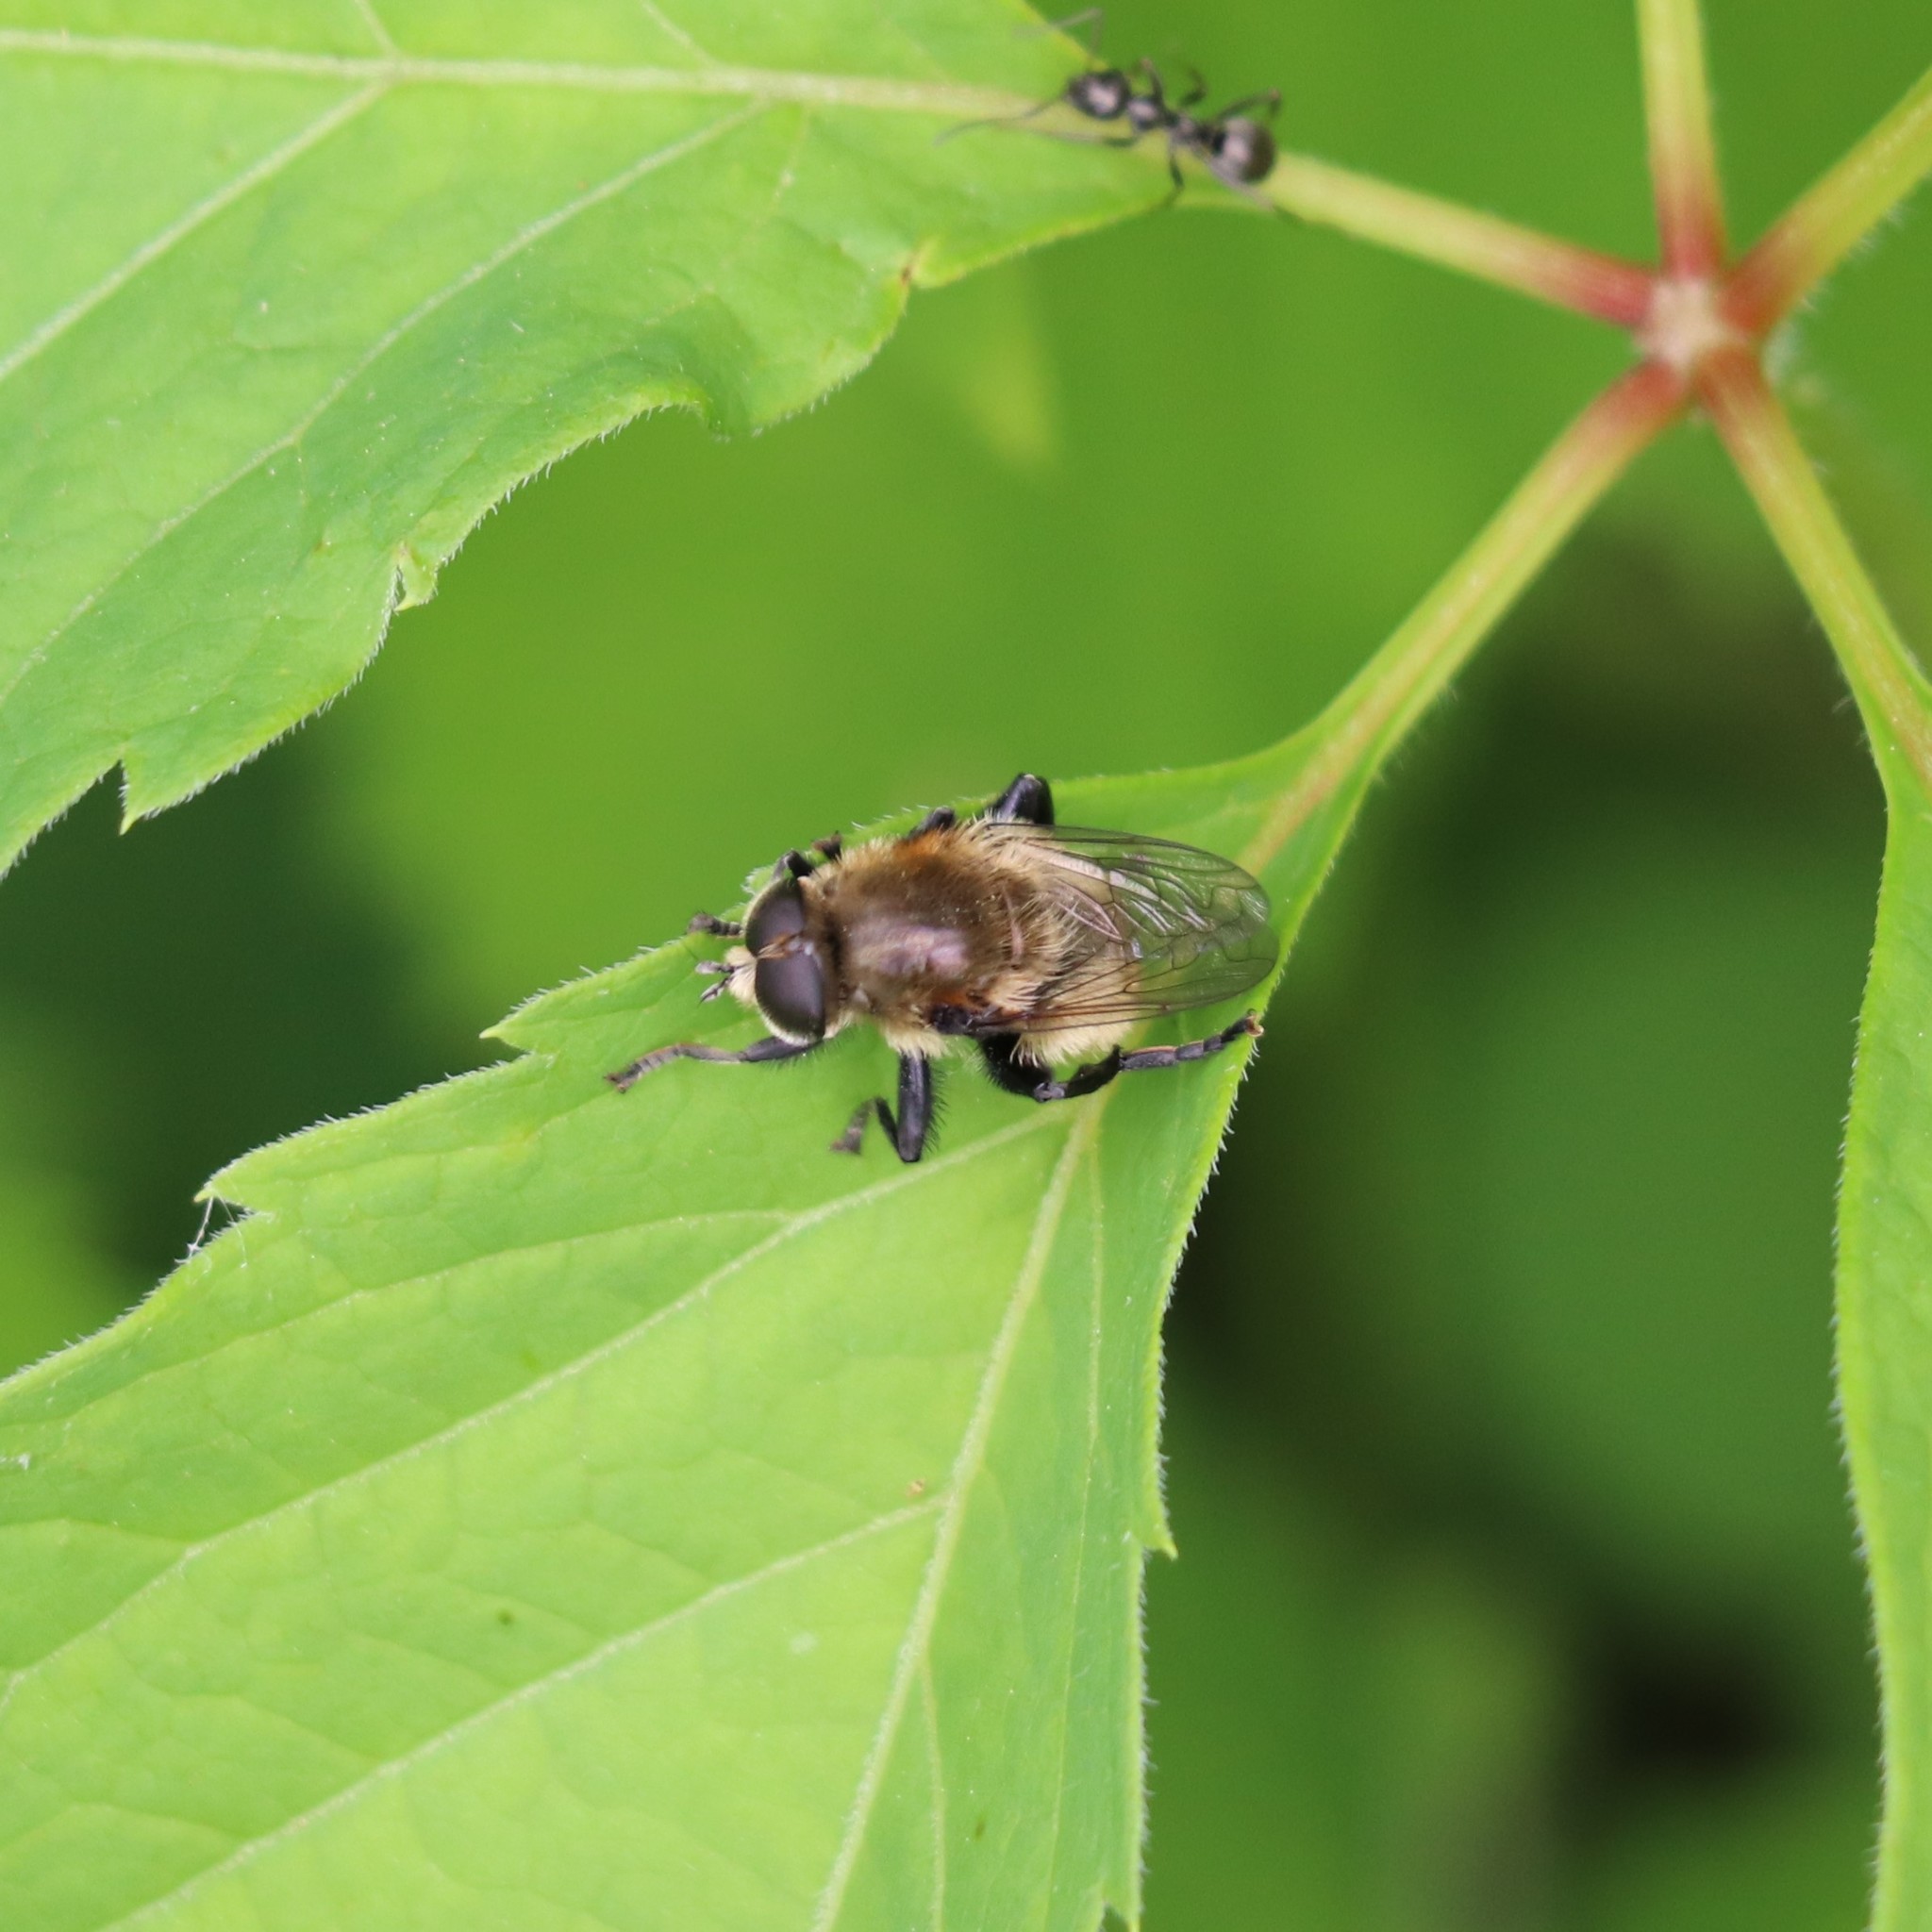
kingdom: Animalia
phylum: Arthropoda
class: Insecta
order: Diptera
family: Syrphidae
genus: Merodon
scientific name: Merodon equestris
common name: Greater bulb-fly
